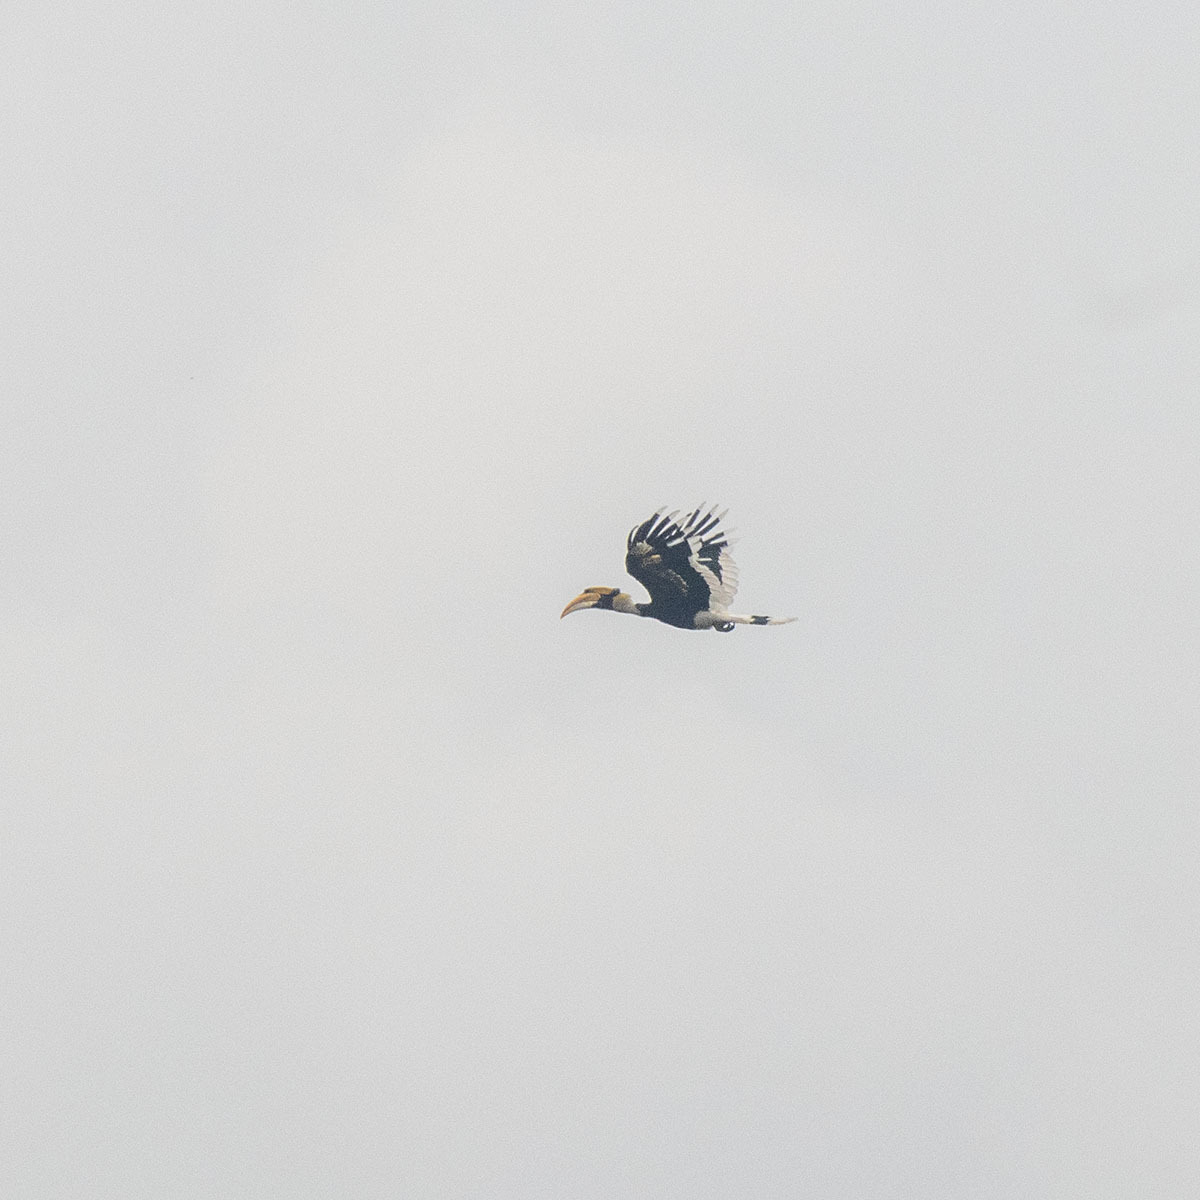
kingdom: Animalia
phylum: Chordata
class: Aves
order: Bucerotiformes
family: Bucerotidae
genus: Buceros
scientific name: Buceros bicornis
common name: Great hornbill
